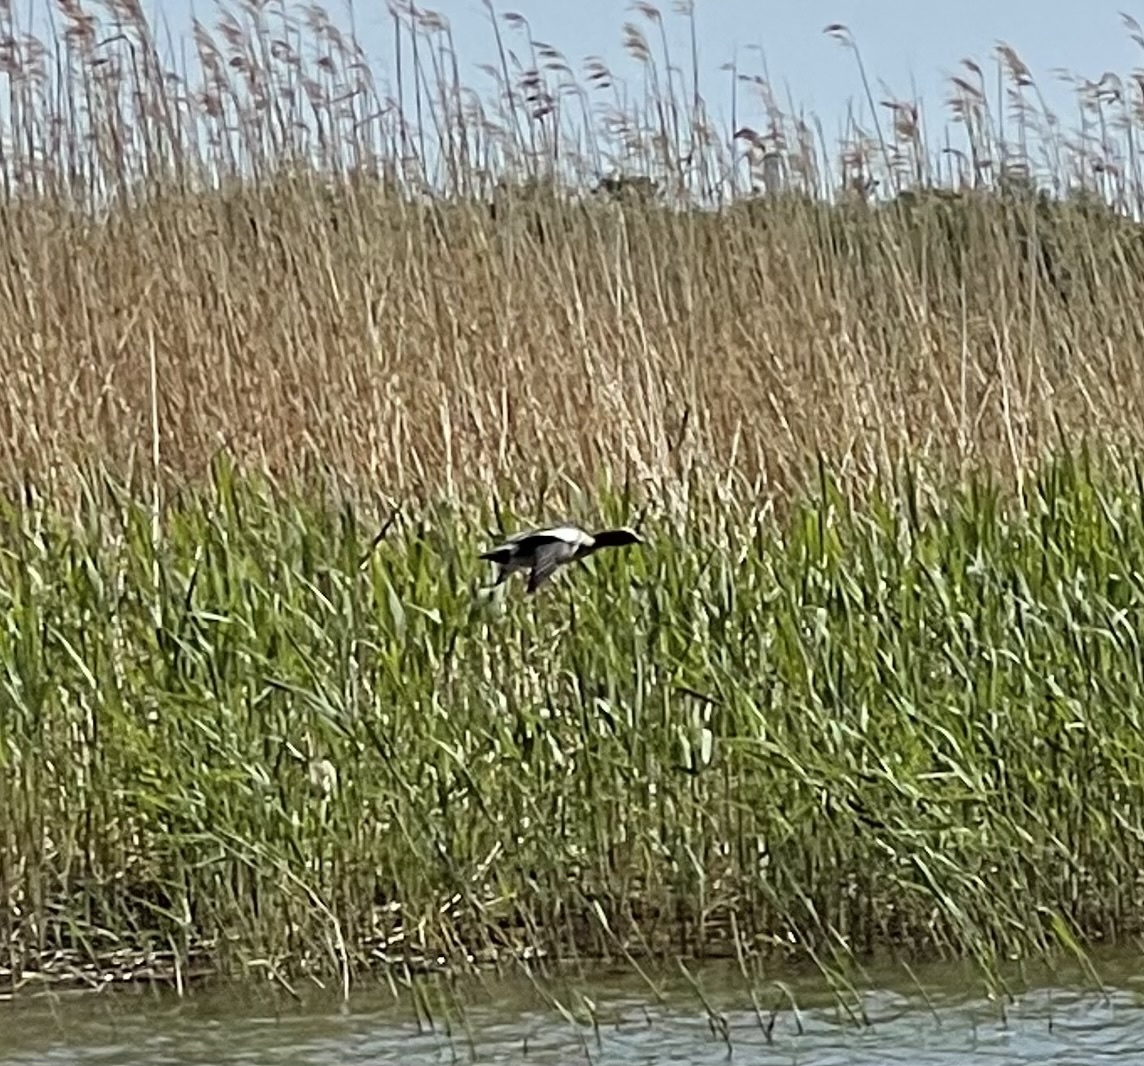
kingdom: Animalia
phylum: Chordata
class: Aves
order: Anseriformes
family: Anatidae
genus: Mareca
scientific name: Mareca penelope
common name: Eurasian wigeon
